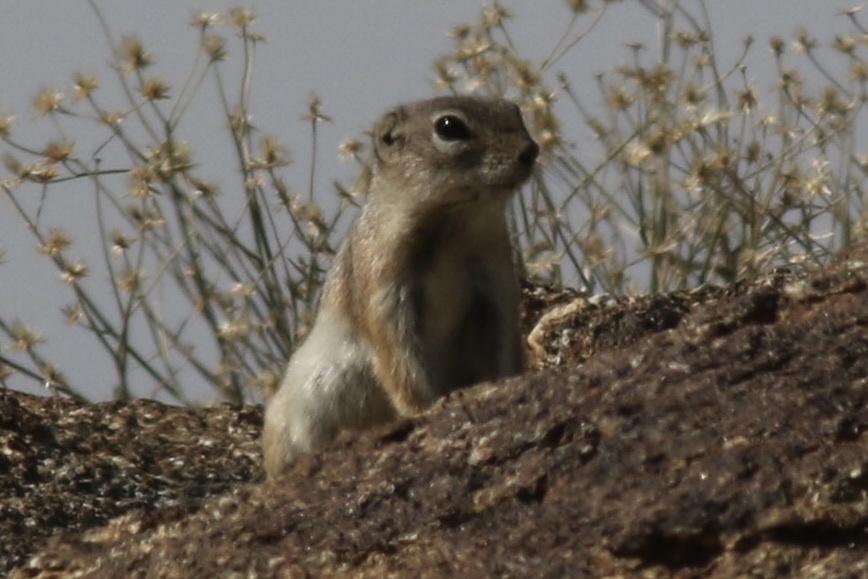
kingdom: Animalia
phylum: Chordata
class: Mammalia
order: Rodentia
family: Sciuridae
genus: Ammospermophilus
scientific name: Ammospermophilus leucurus
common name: White-tailed antelope squirrel
